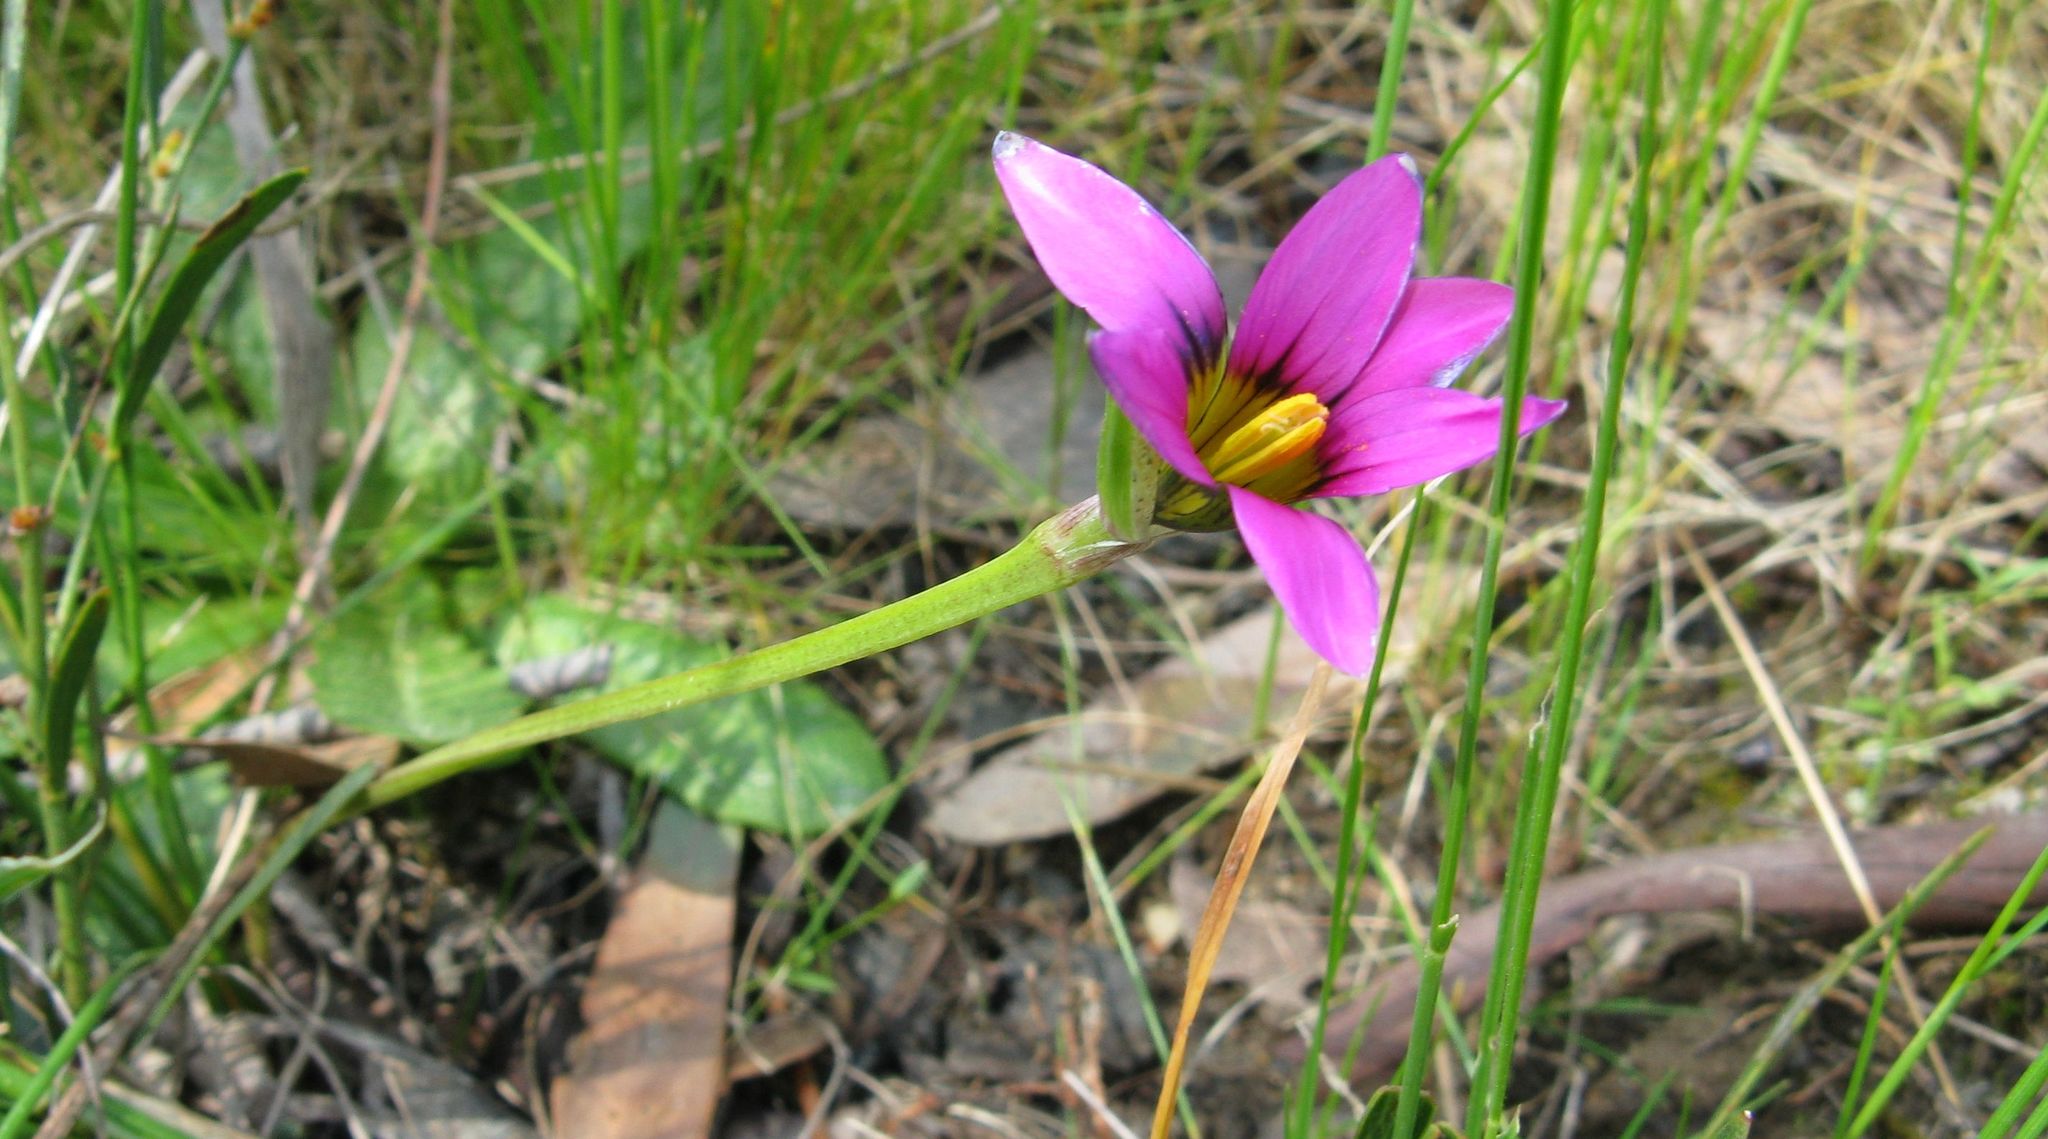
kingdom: Plantae
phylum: Tracheophyta
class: Liliopsida
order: Asparagales
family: Iridaceae
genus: Romulea
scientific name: Romulea rosea
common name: Oniongrass
